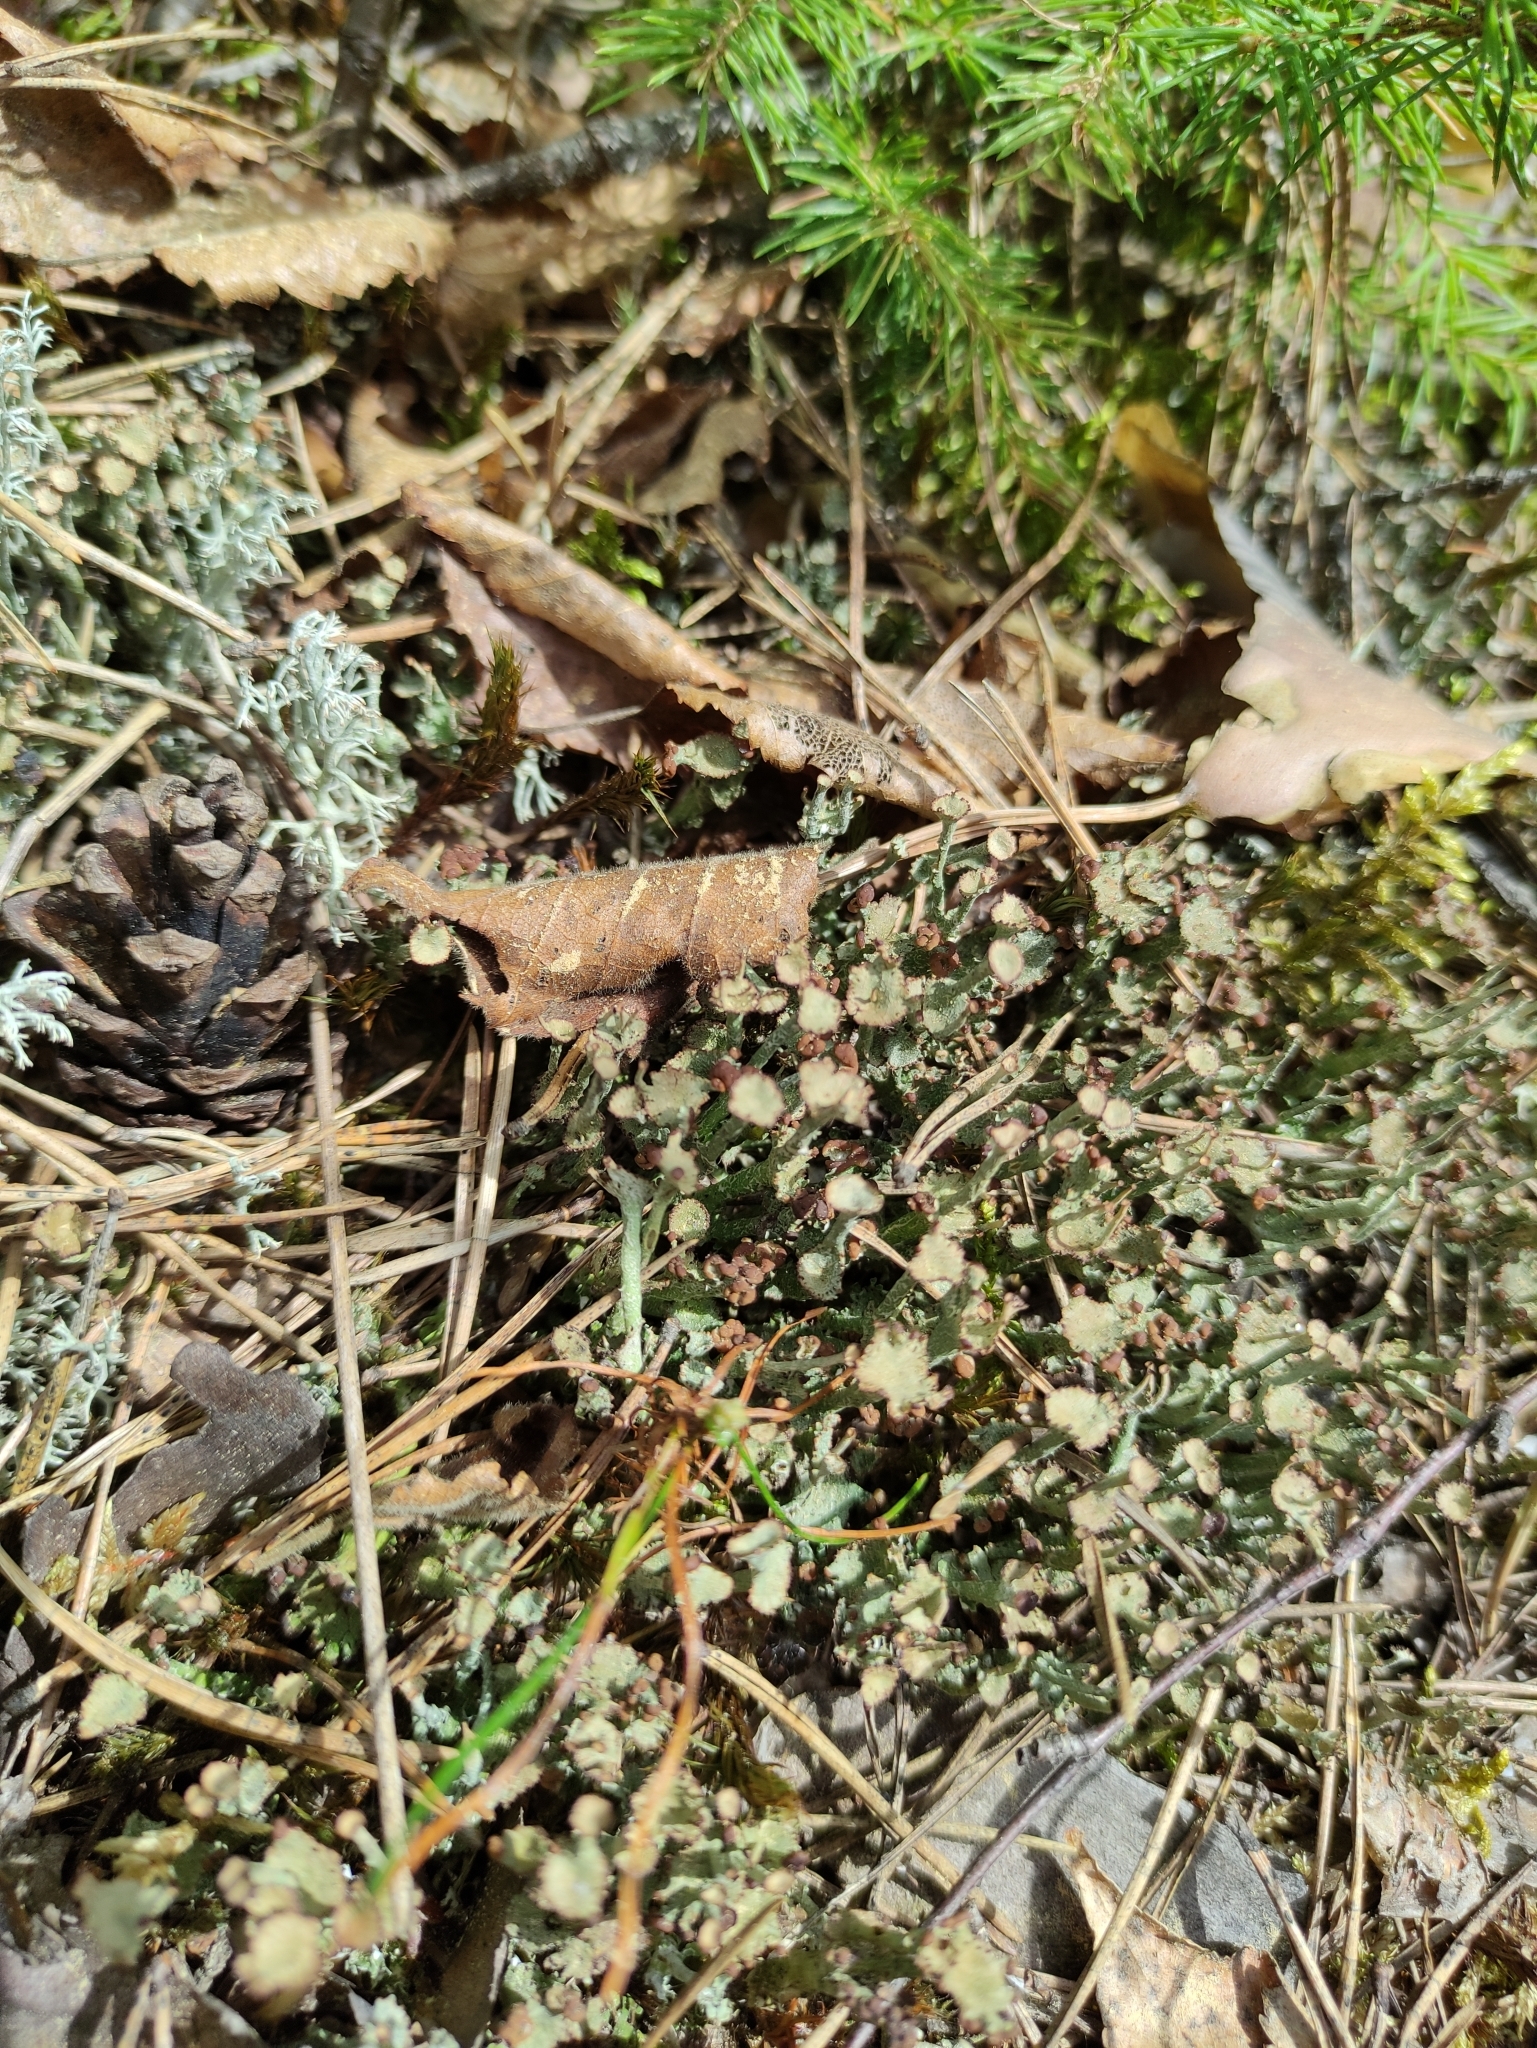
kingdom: Fungi
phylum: Ascomycota
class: Lecanoromycetes
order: Lecanorales
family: Cladoniaceae
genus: Cladonia
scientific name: Cladonia gracilis
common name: Smooth clad lichen
